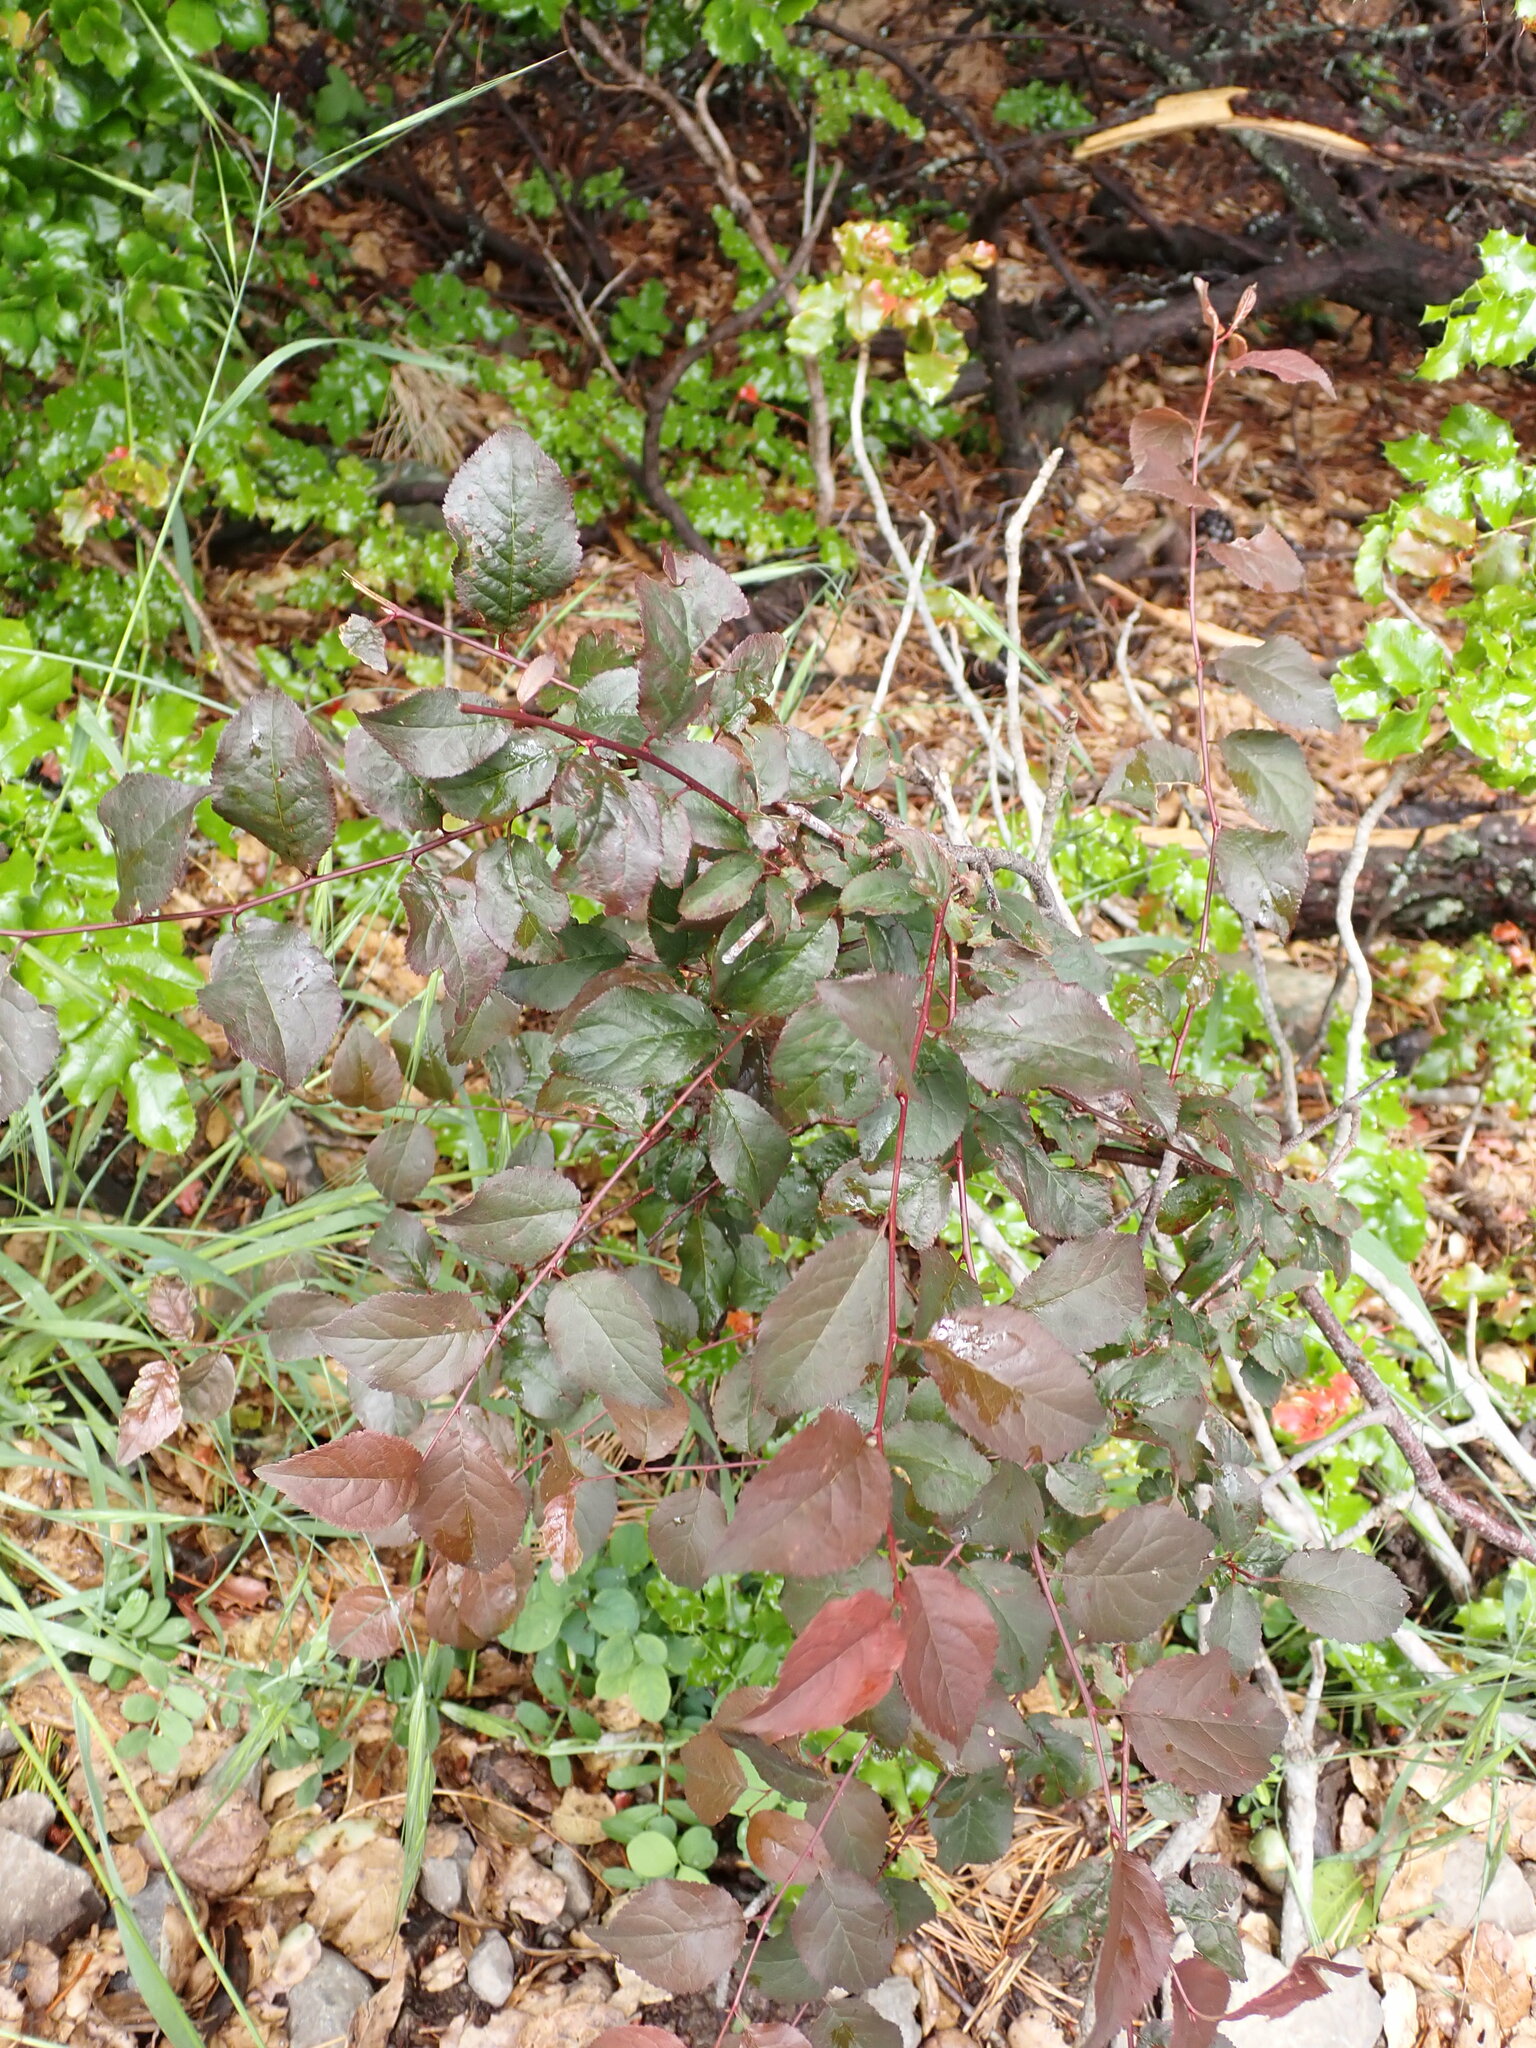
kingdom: Plantae
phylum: Tracheophyta
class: Magnoliopsida
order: Rosales
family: Rosaceae
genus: Prunus
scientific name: Prunus cerasifera
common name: Cherry plum
